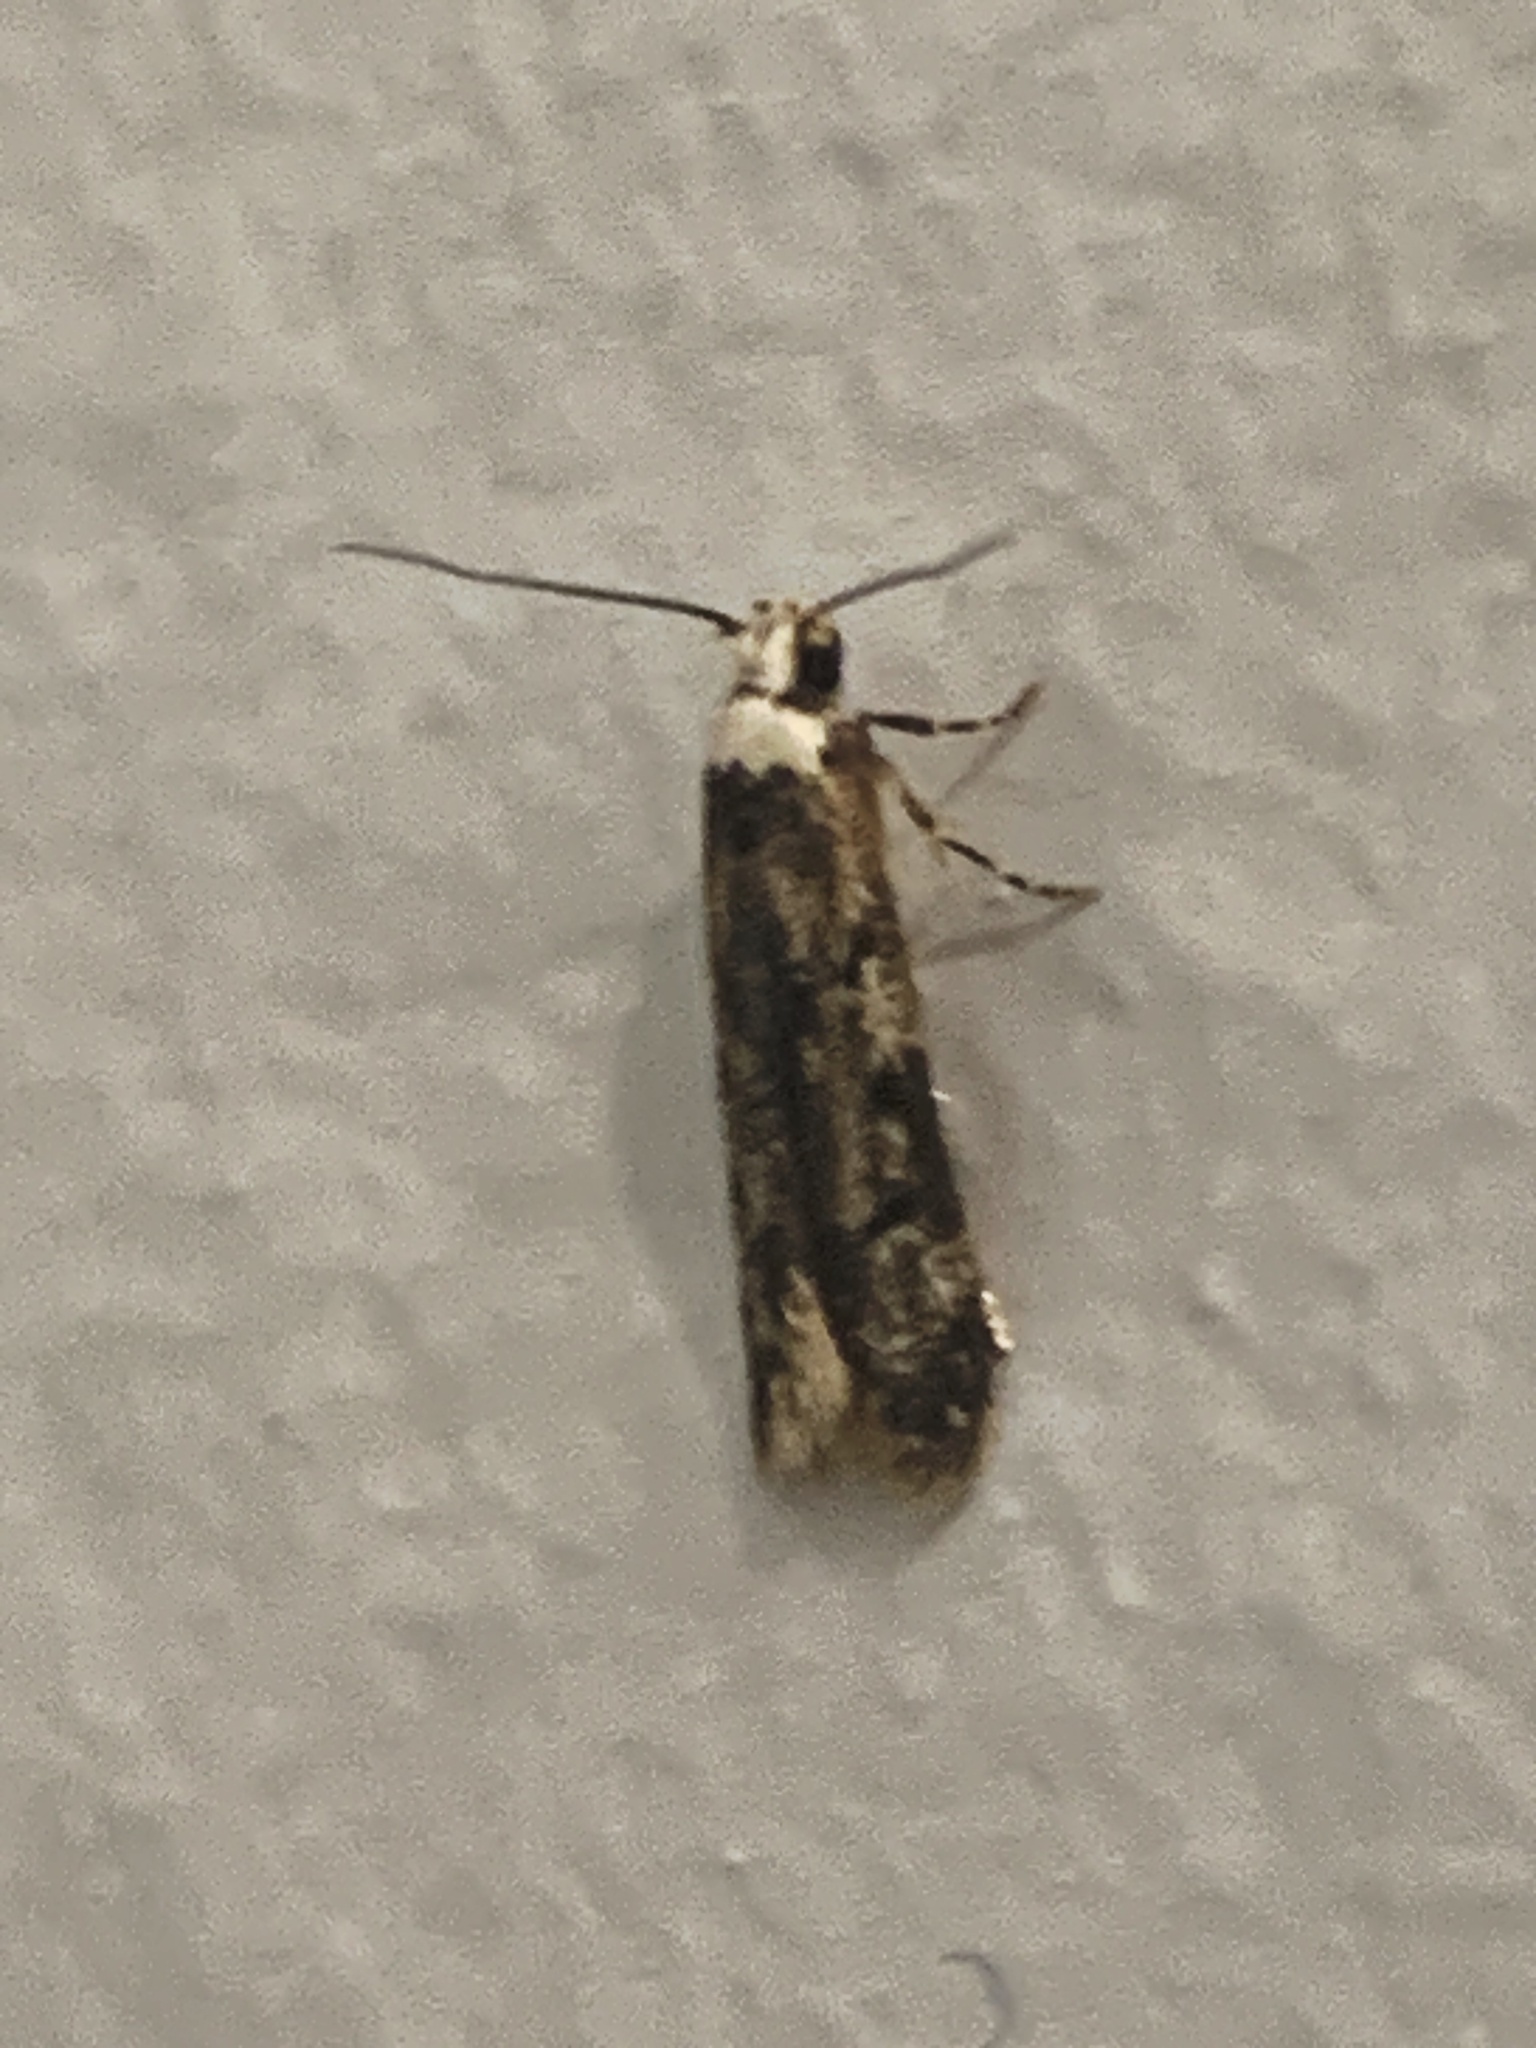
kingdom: Animalia
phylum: Arthropoda
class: Insecta
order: Lepidoptera
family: Oecophoridae
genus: Endrosis
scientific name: Endrosis sarcitrella
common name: White-shouldered house moth
